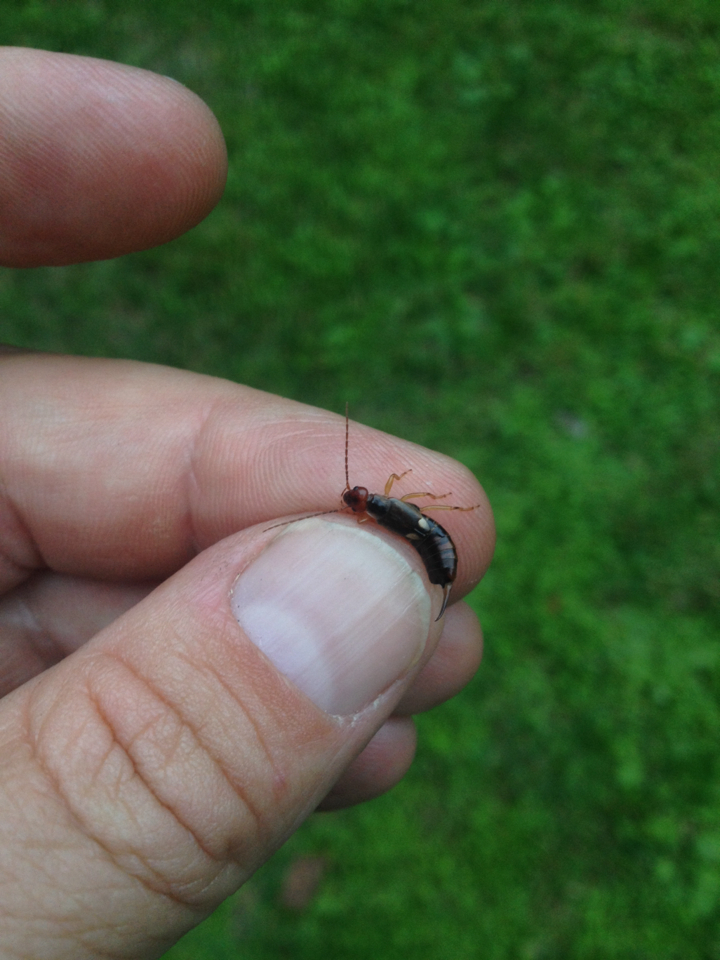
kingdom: Animalia
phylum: Arthropoda
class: Insecta
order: Dermaptera
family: Forficulidae
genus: Forficula
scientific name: Forficula
